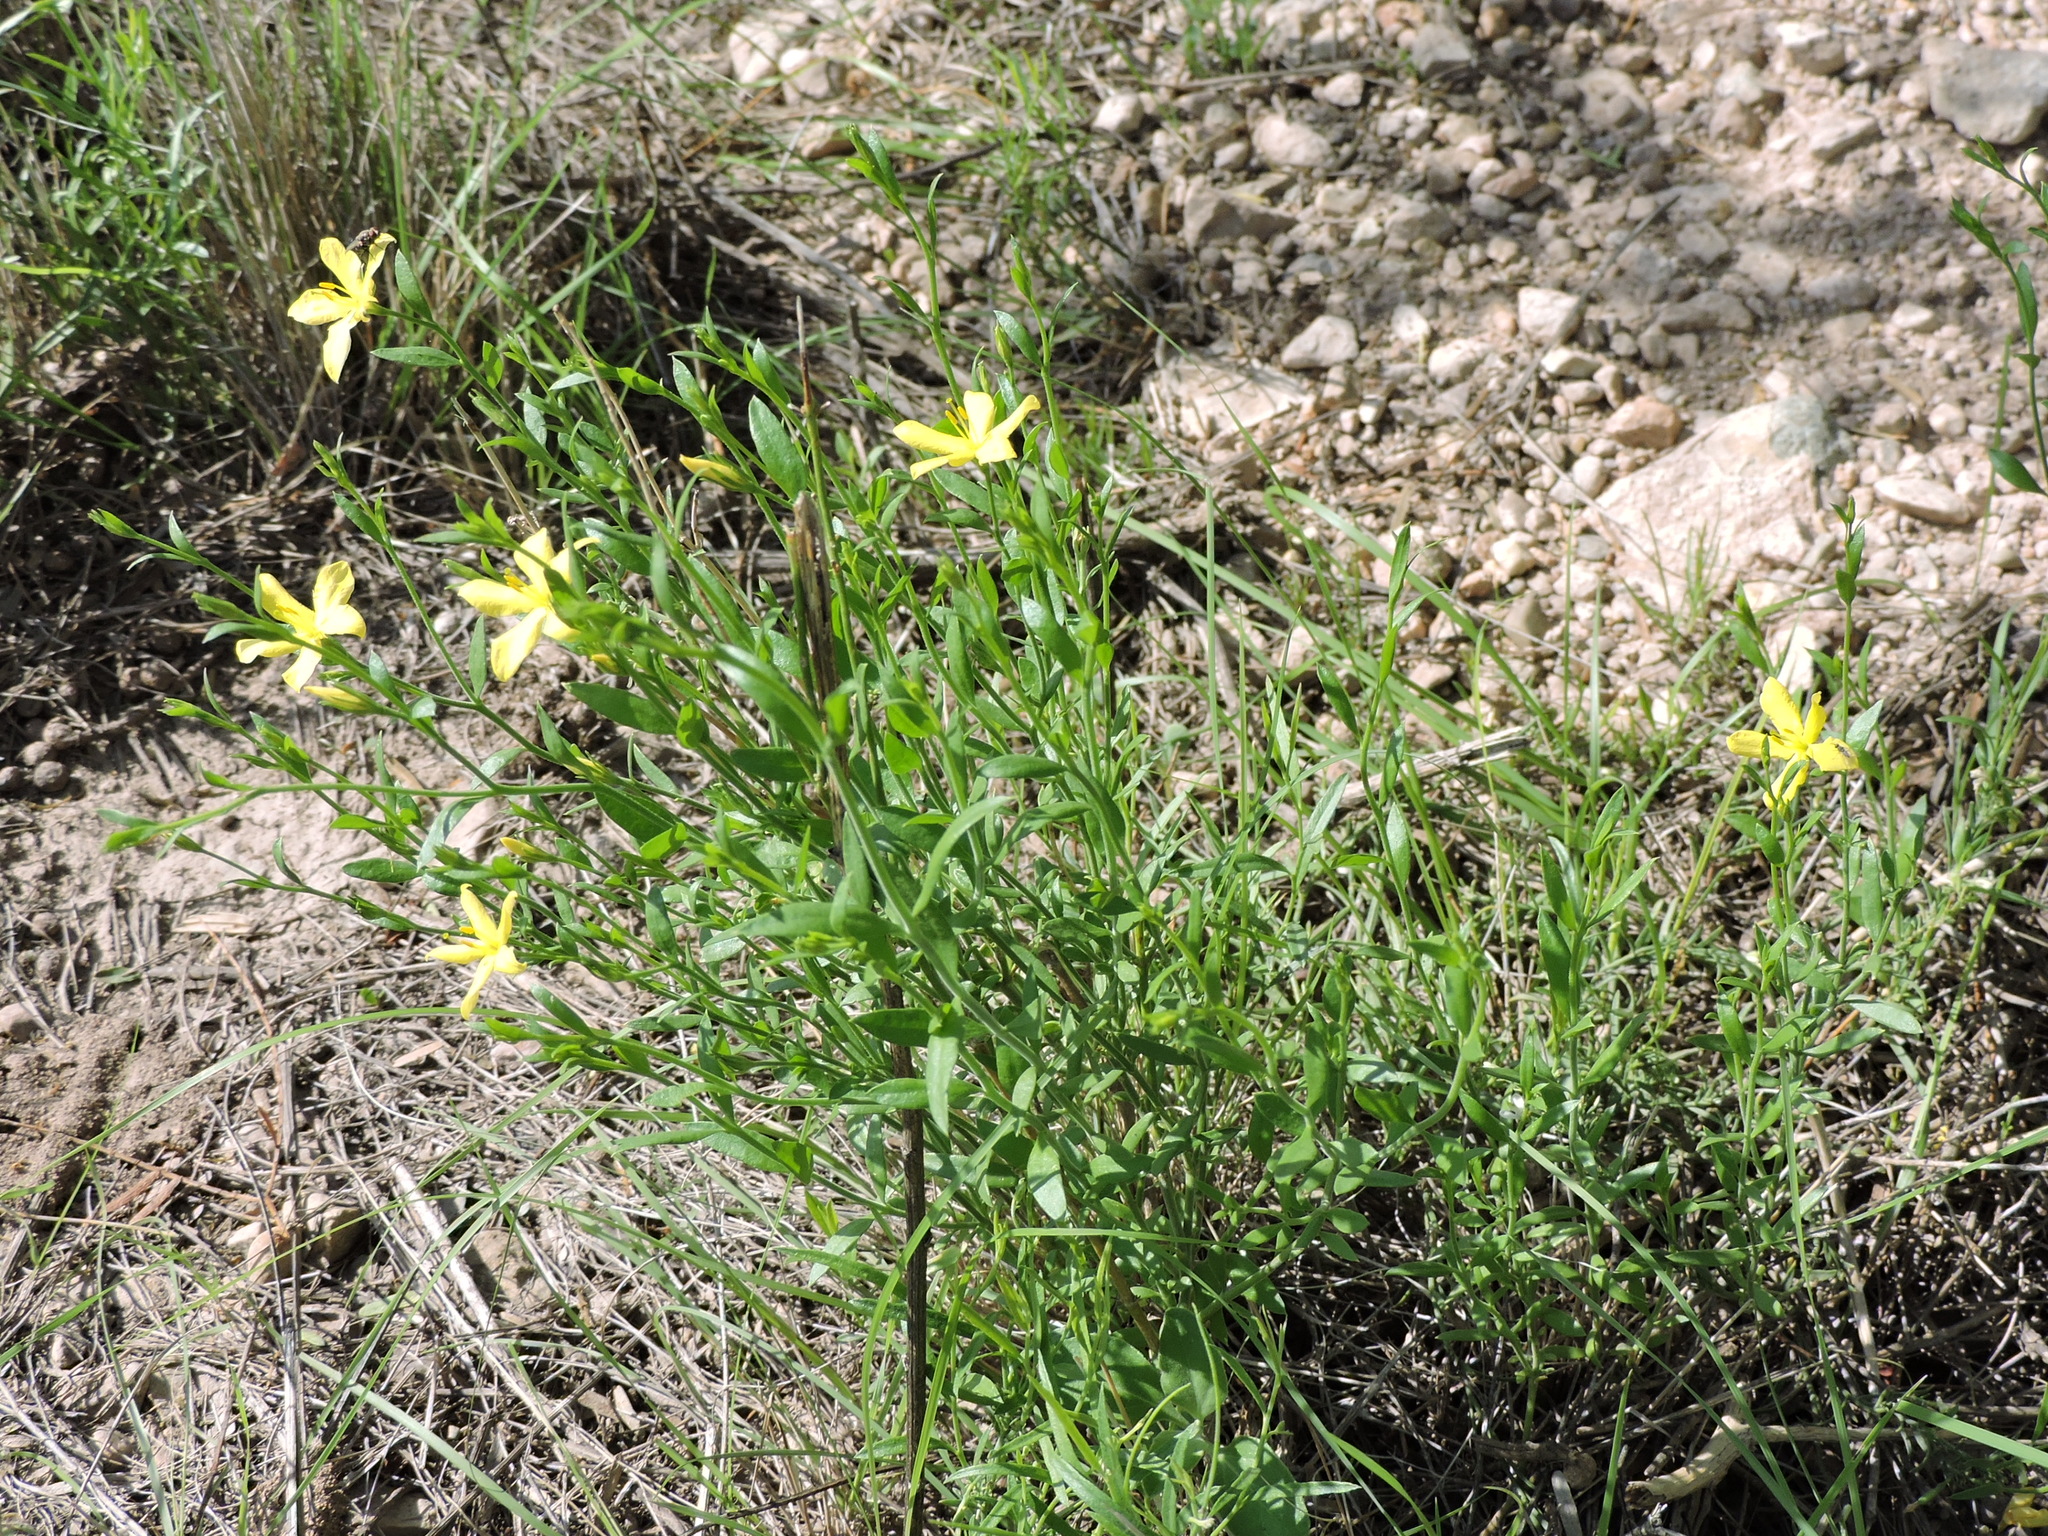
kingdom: Plantae
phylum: Tracheophyta
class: Magnoliopsida
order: Lamiales
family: Oleaceae
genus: Menodora
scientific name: Menodora longiflora
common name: Showy menodora
